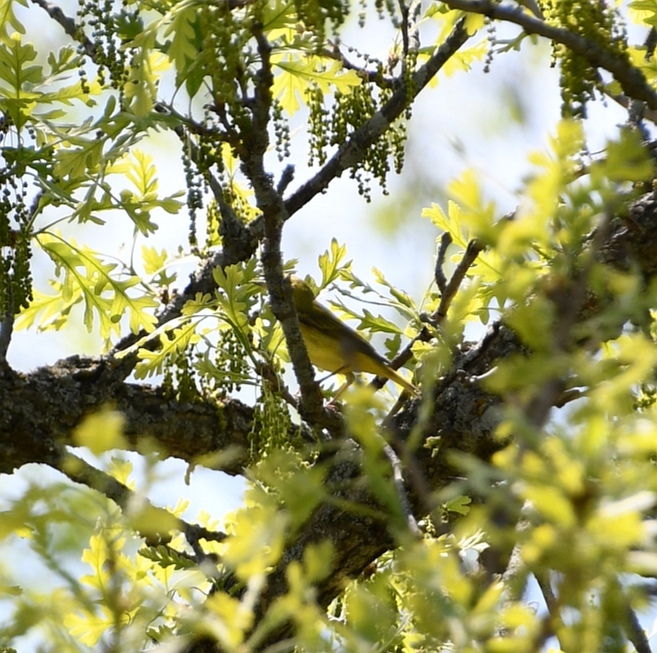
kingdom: Animalia
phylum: Chordata
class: Aves
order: Passeriformes
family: Parulidae
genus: Setophaga
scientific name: Setophaga petechia
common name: Yellow warbler
